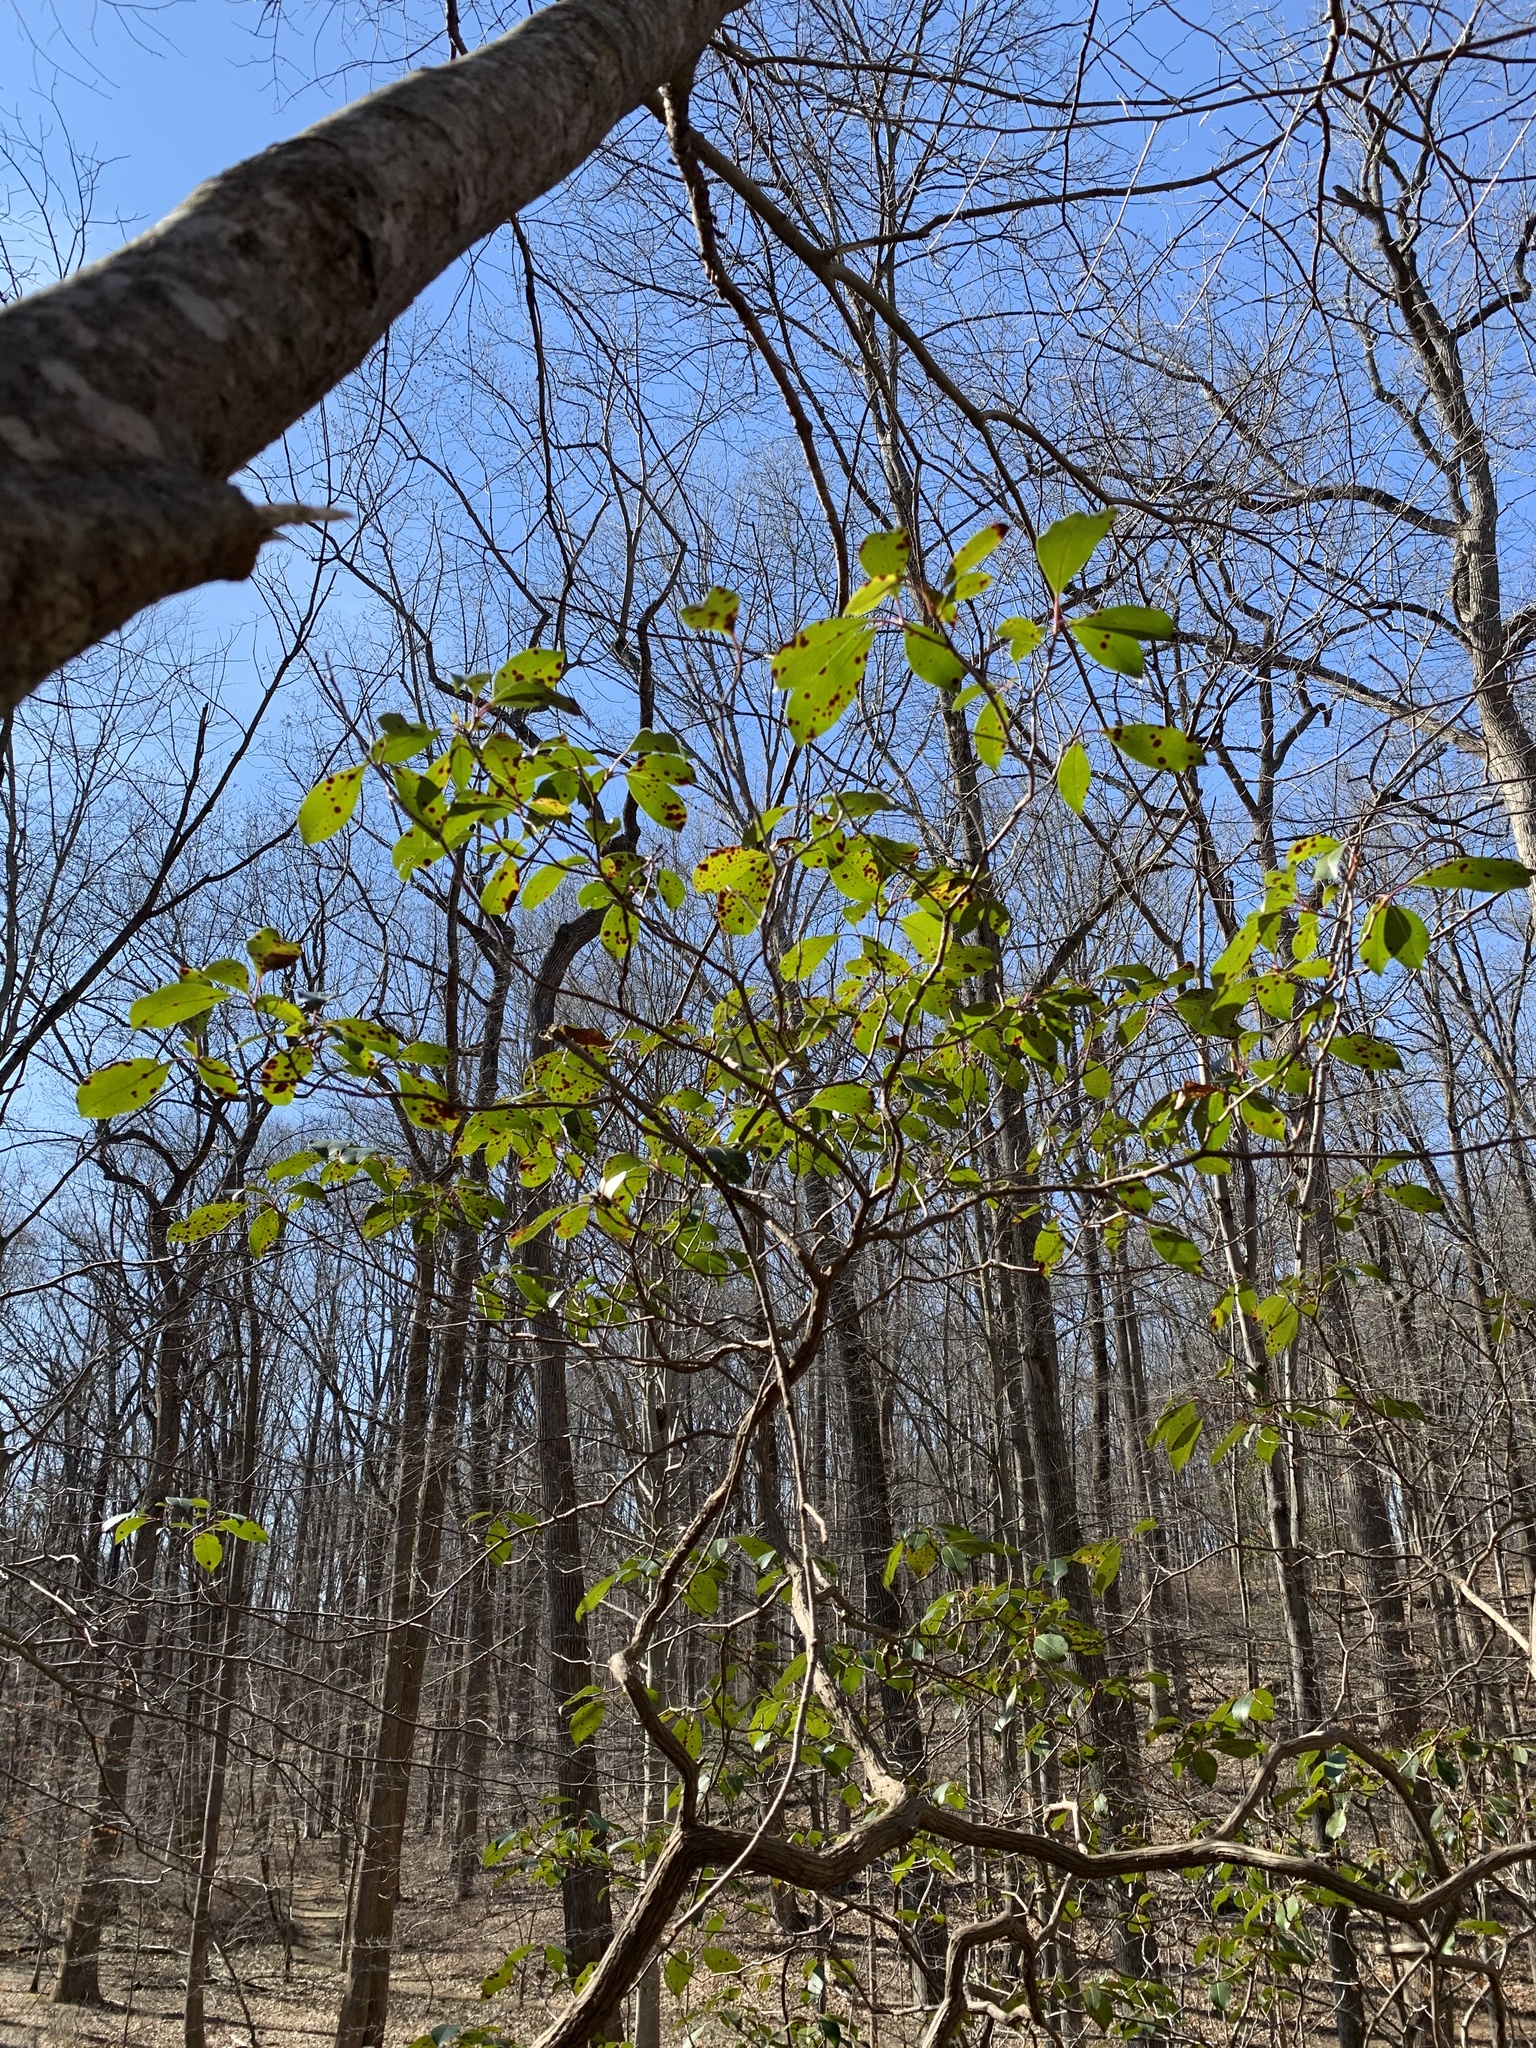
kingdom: Fungi
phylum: Ascomycota
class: Dothideomycetes
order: Mycosphaerellales
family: Mycosphaerellaceae
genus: Mycosphaerella
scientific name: Mycosphaerella colorata
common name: Mountain laurel leaf spot
